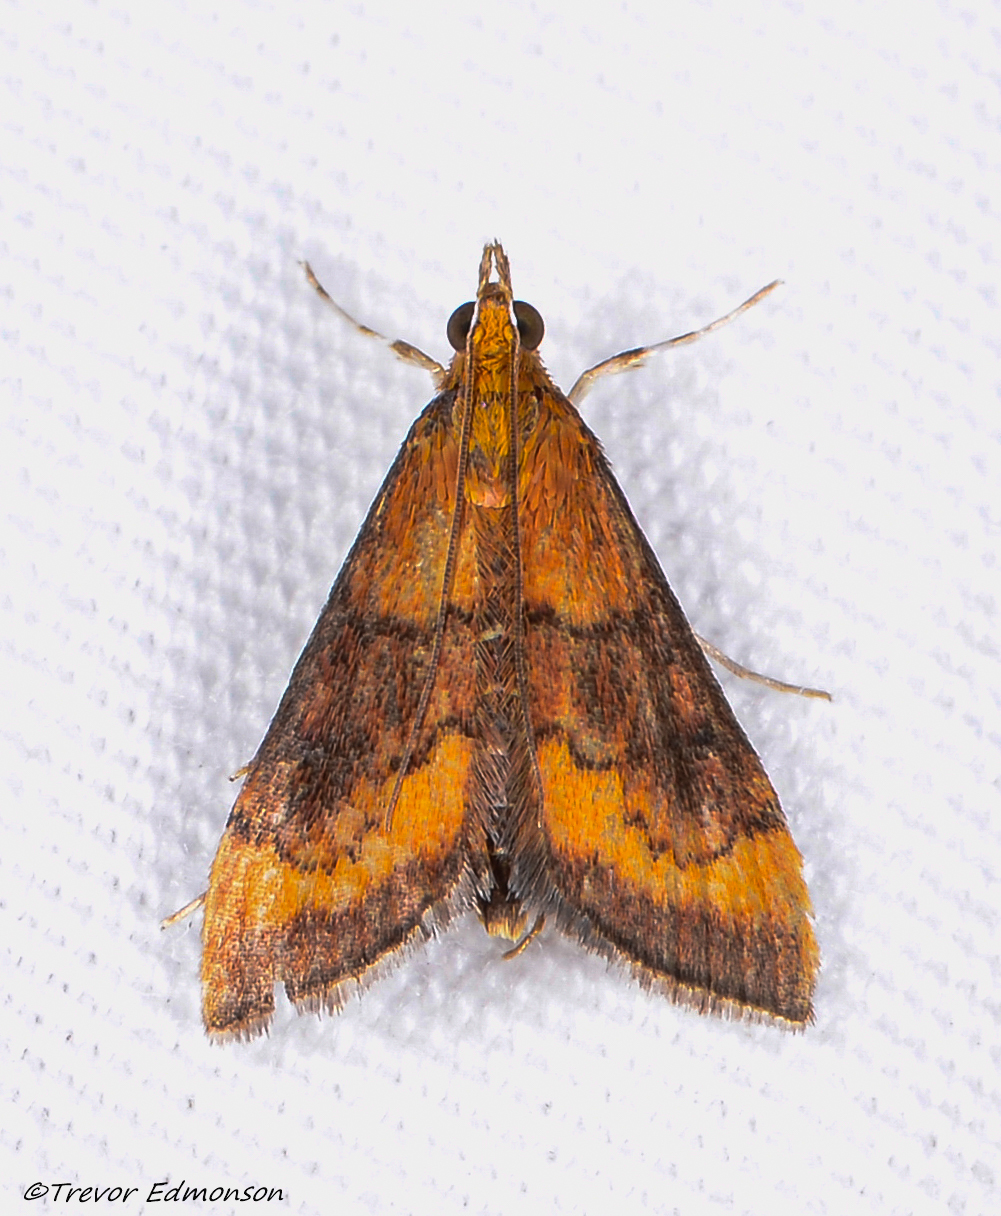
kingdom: Animalia
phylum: Arthropoda
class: Insecta
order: Lepidoptera
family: Crambidae
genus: Pyrausta
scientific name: Pyrausta rubricalis
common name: Variable reddish pyrausta
